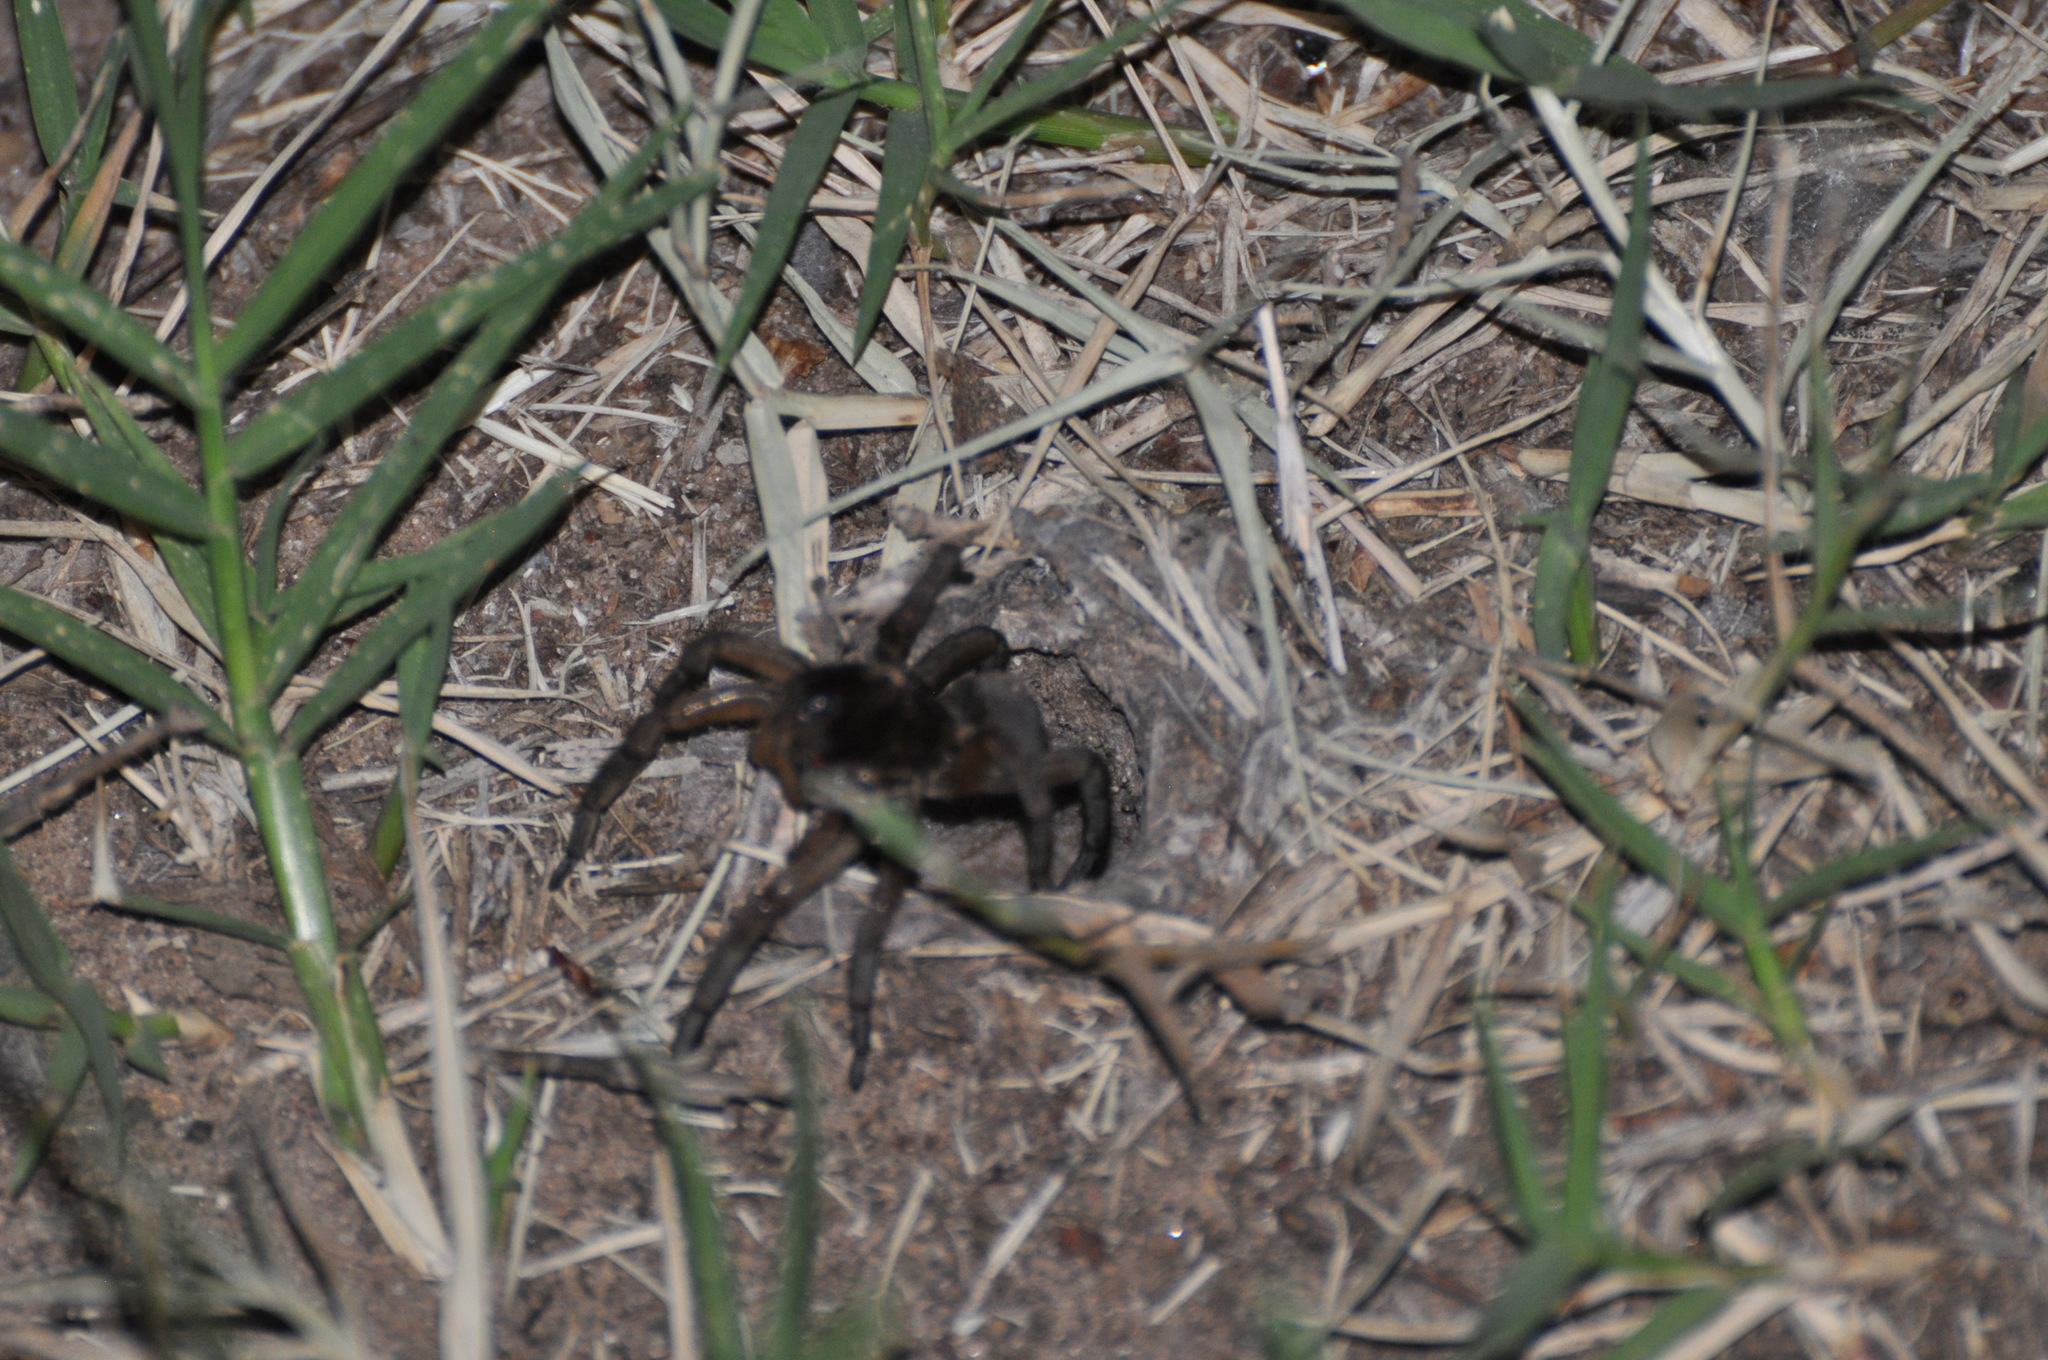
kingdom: Animalia
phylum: Arthropoda
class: Arachnida
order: Araneae
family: Lycosidae
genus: Geolycosa
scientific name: Geolycosa missouriensis
